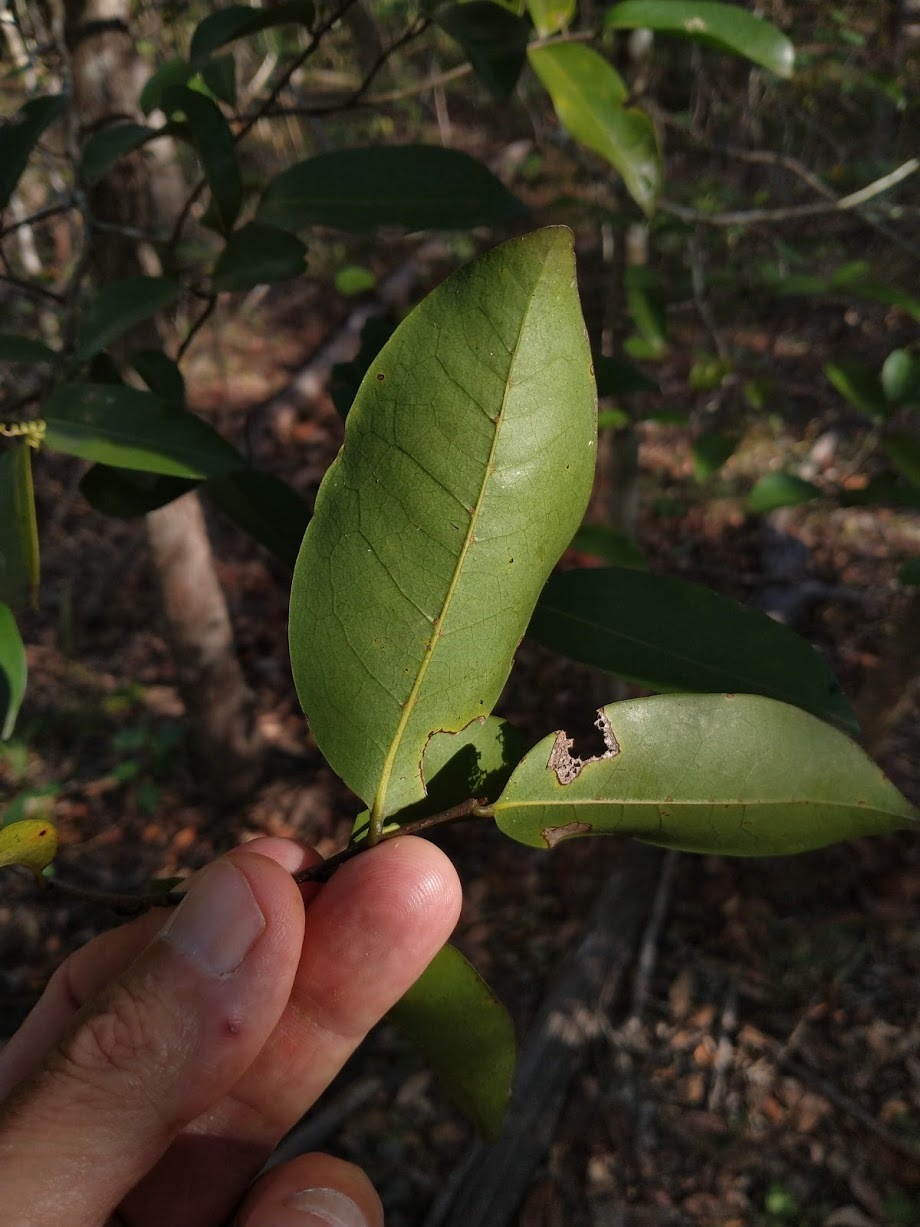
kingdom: Plantae
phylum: Tracheophyta
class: Magnoliopsida
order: Magnoliales
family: Annonaceae
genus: Hubera
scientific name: Hubera nitidissima
